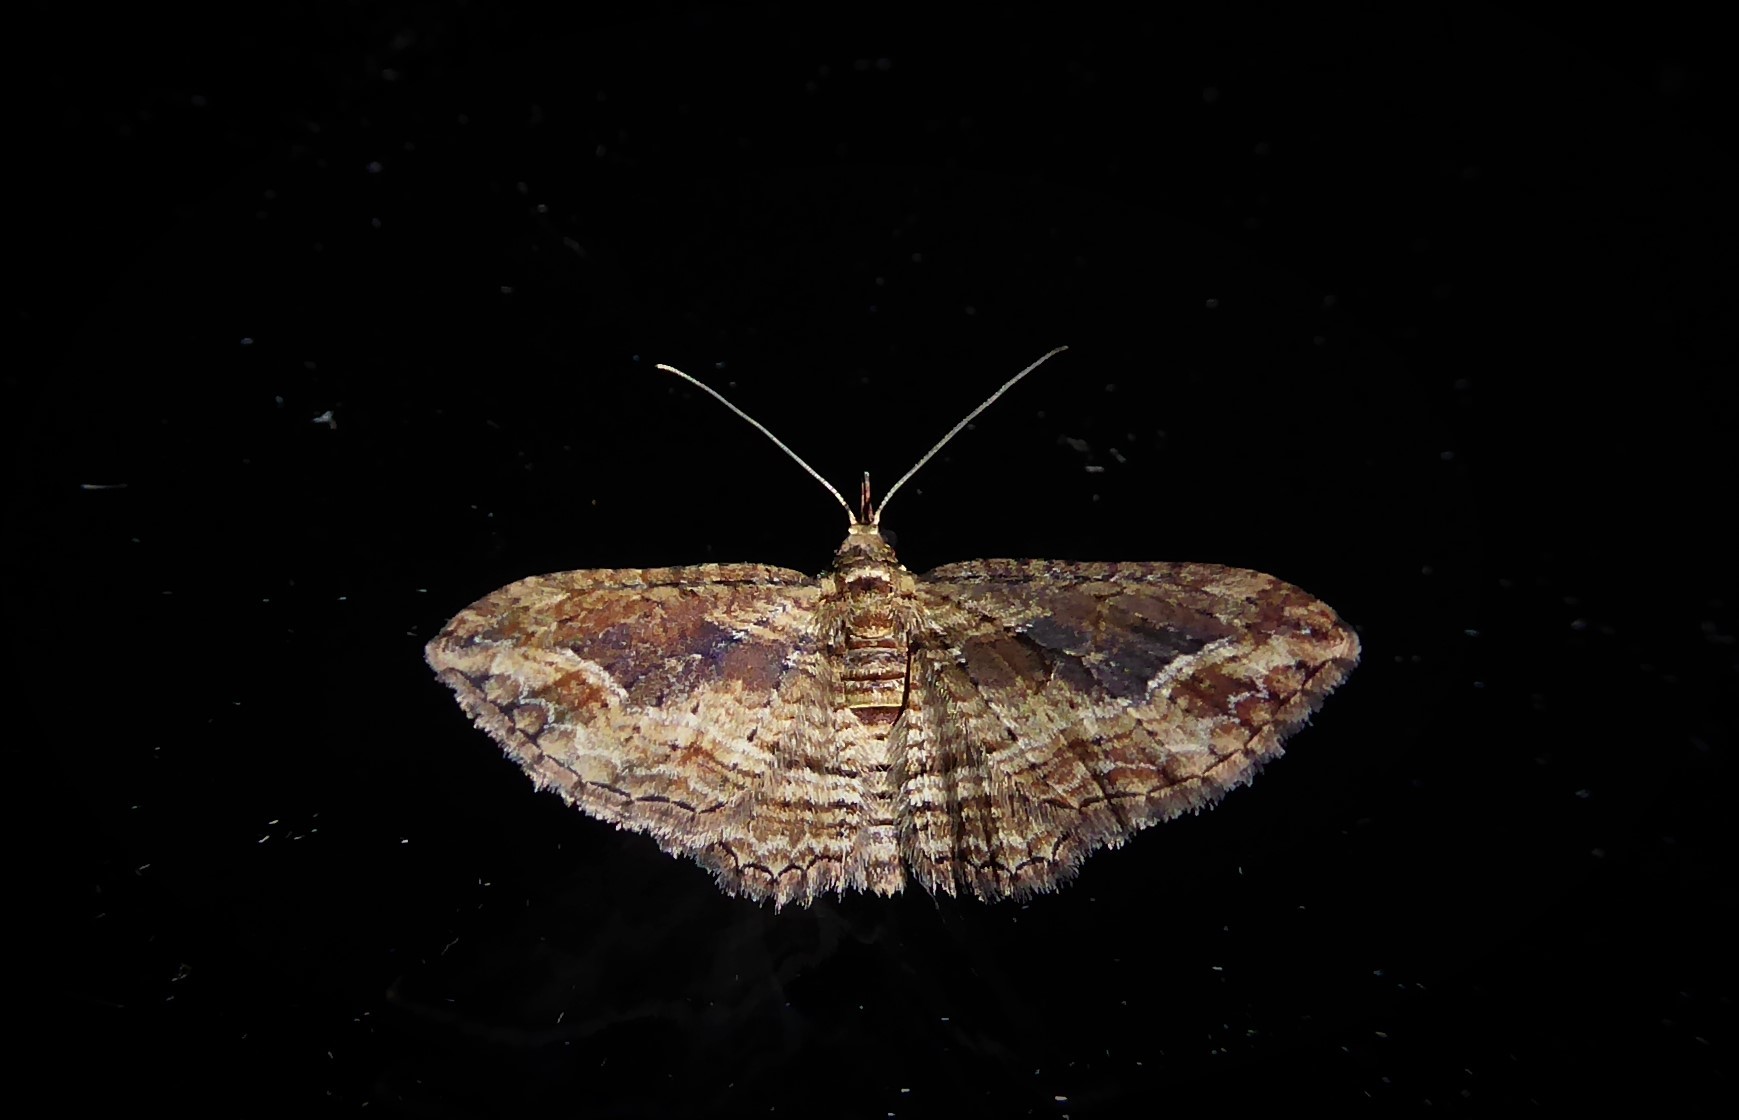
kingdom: Animalia
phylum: Arthropoda
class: Insecta
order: Lepidoptera
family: Geometridae
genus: Chloroclystis
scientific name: Chloroclystis filata
